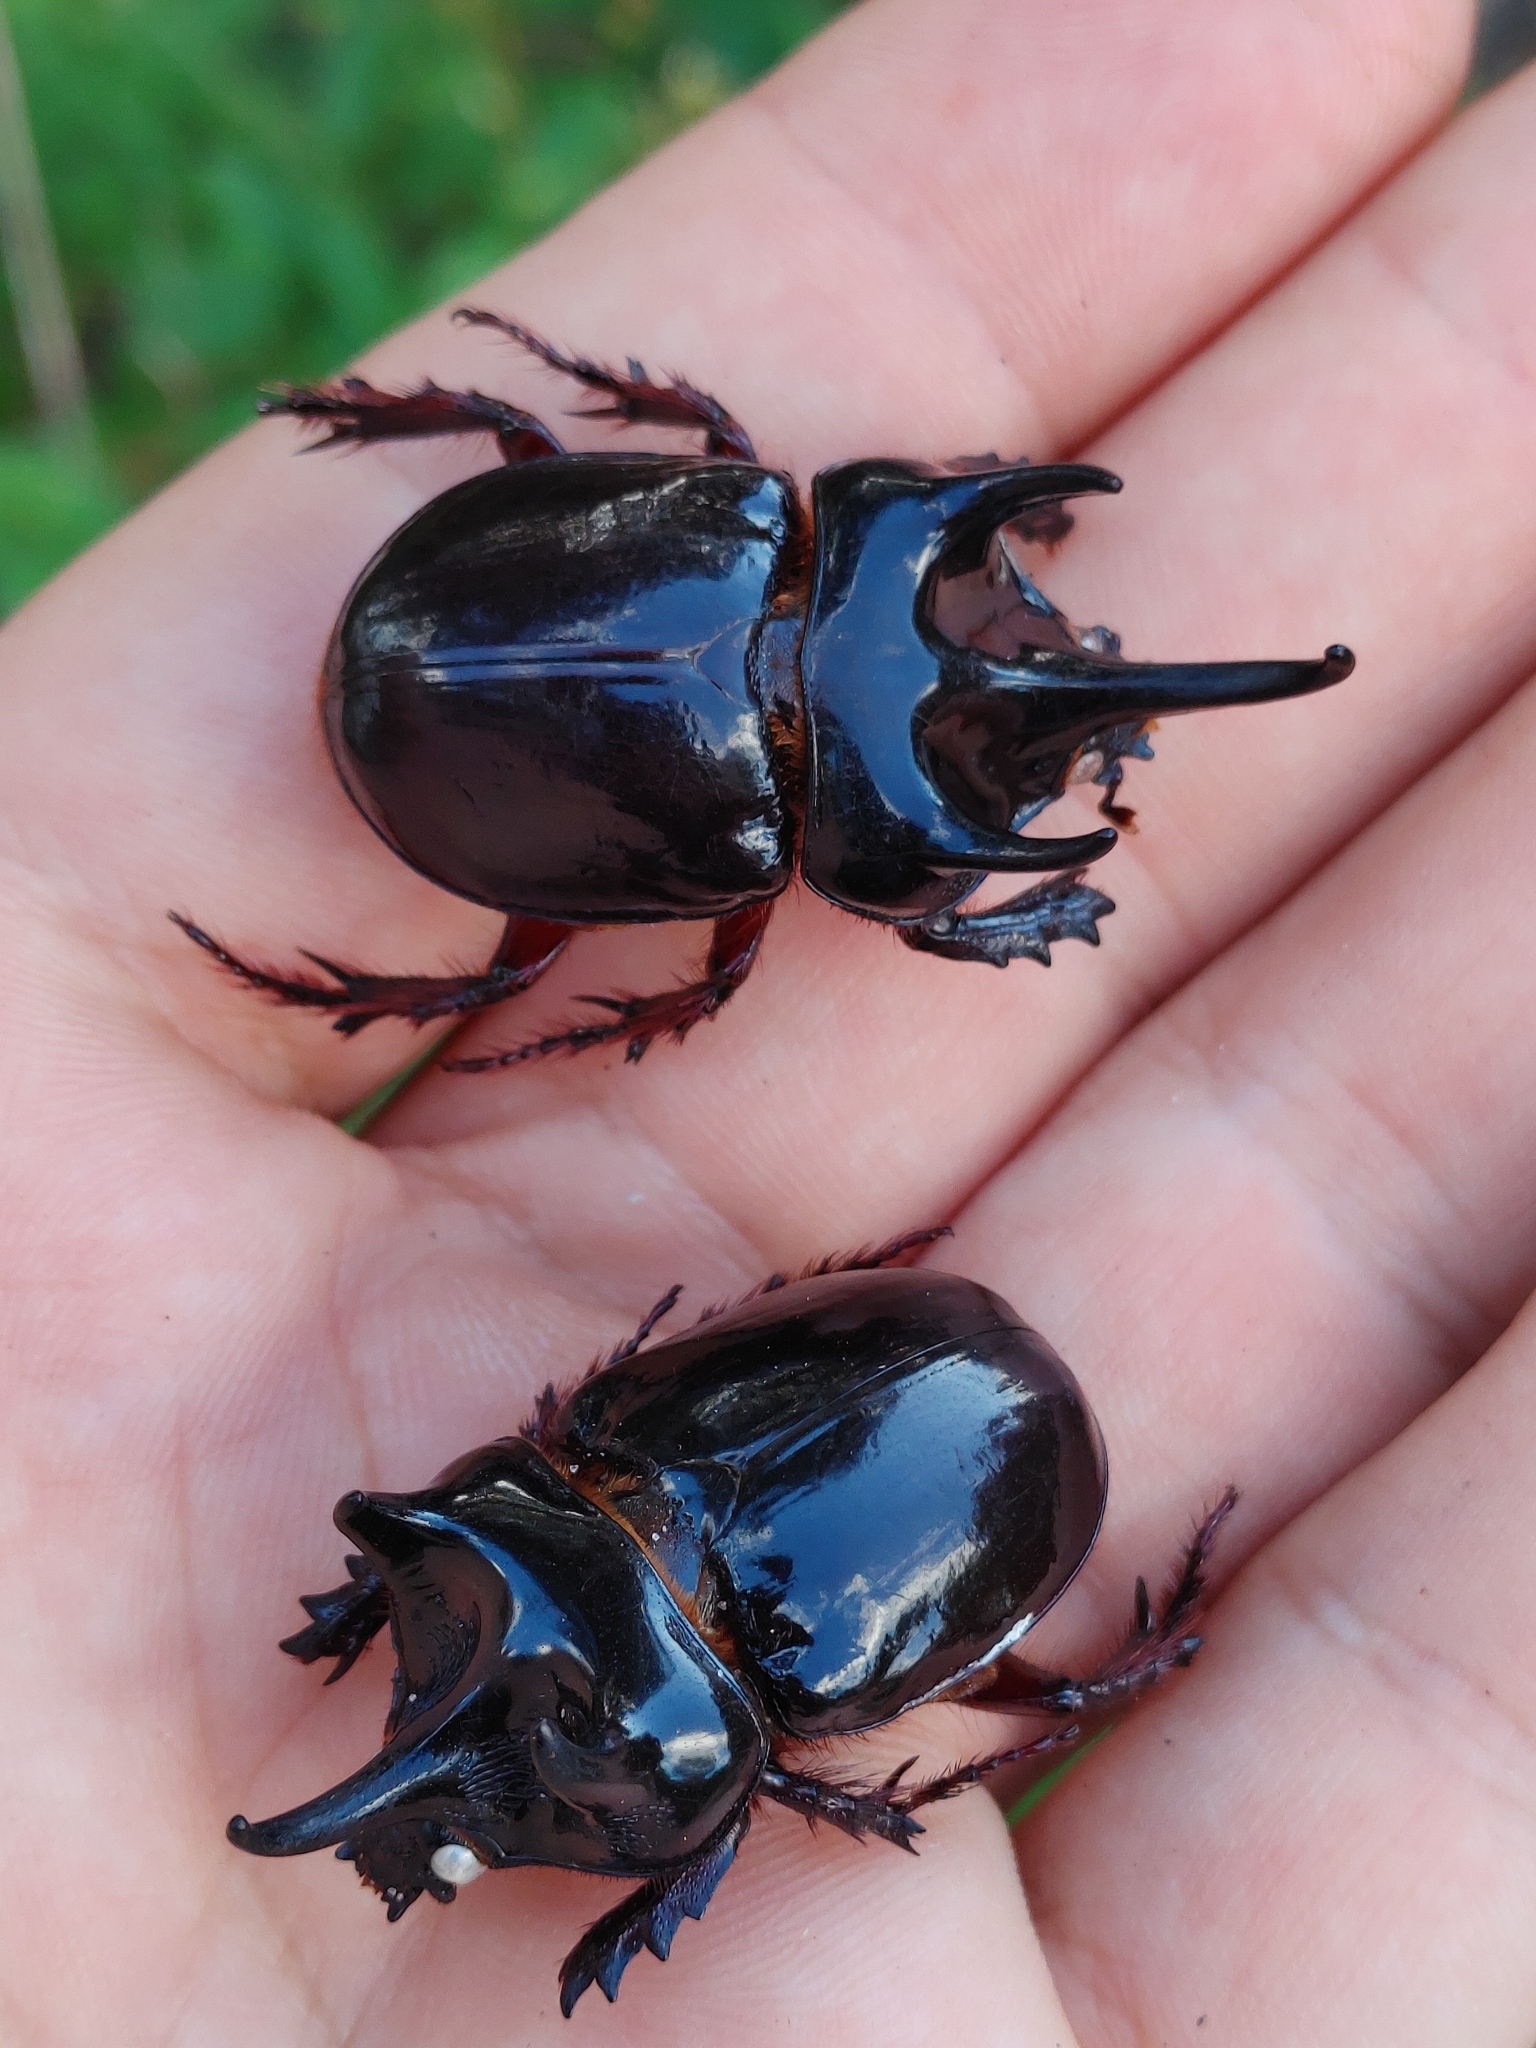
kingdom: Animalia
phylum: Arthropoda
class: Insecta
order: Coleoptera
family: Scarabaeidae
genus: Strategus
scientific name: Strategus antaeus
